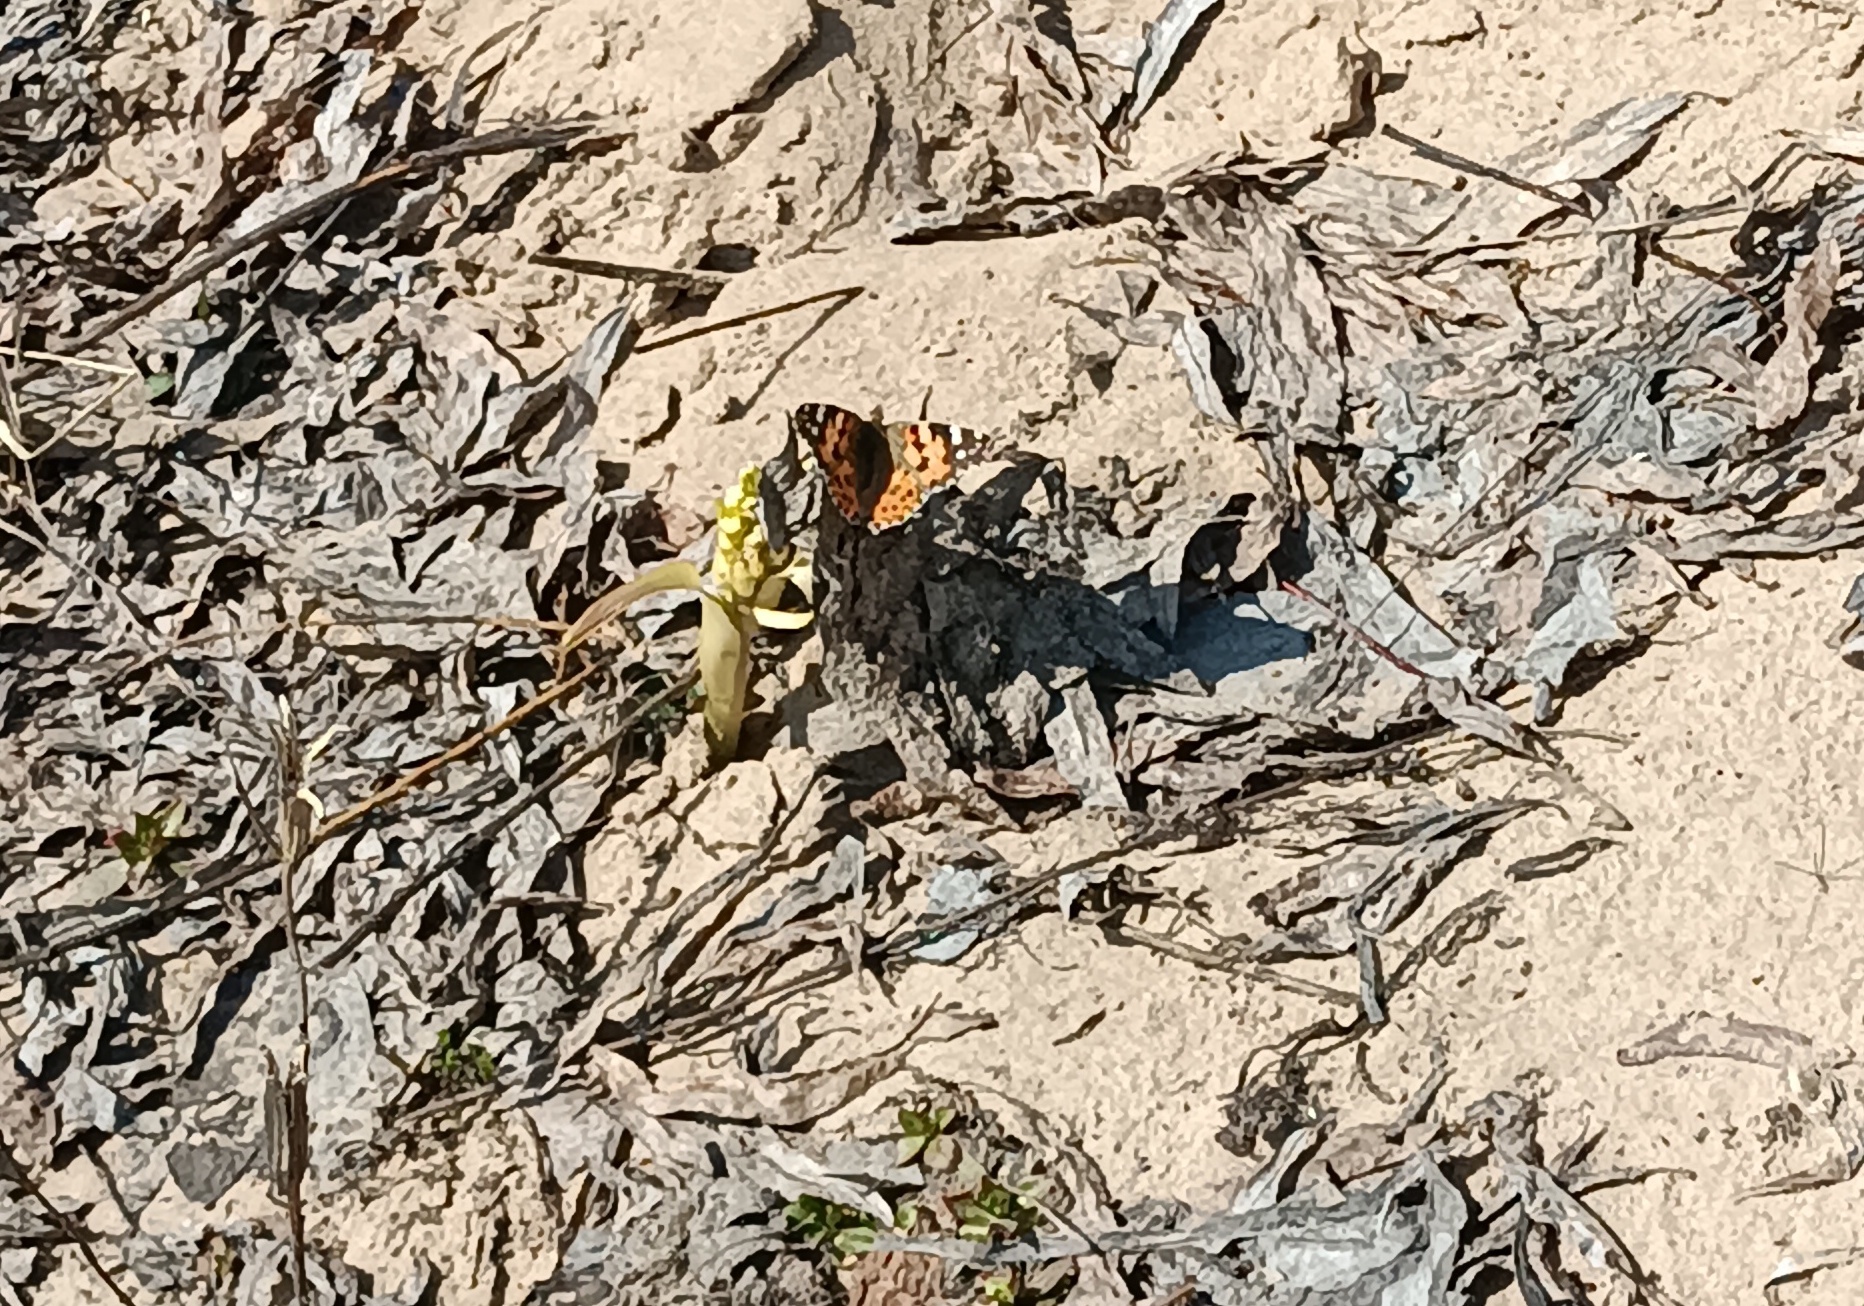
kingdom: Animalia
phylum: Arthropoda
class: Insecta
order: Lepidoptera
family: Nymphalidae
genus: Vanessa
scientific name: Vanessa cardui
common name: Painted lady
